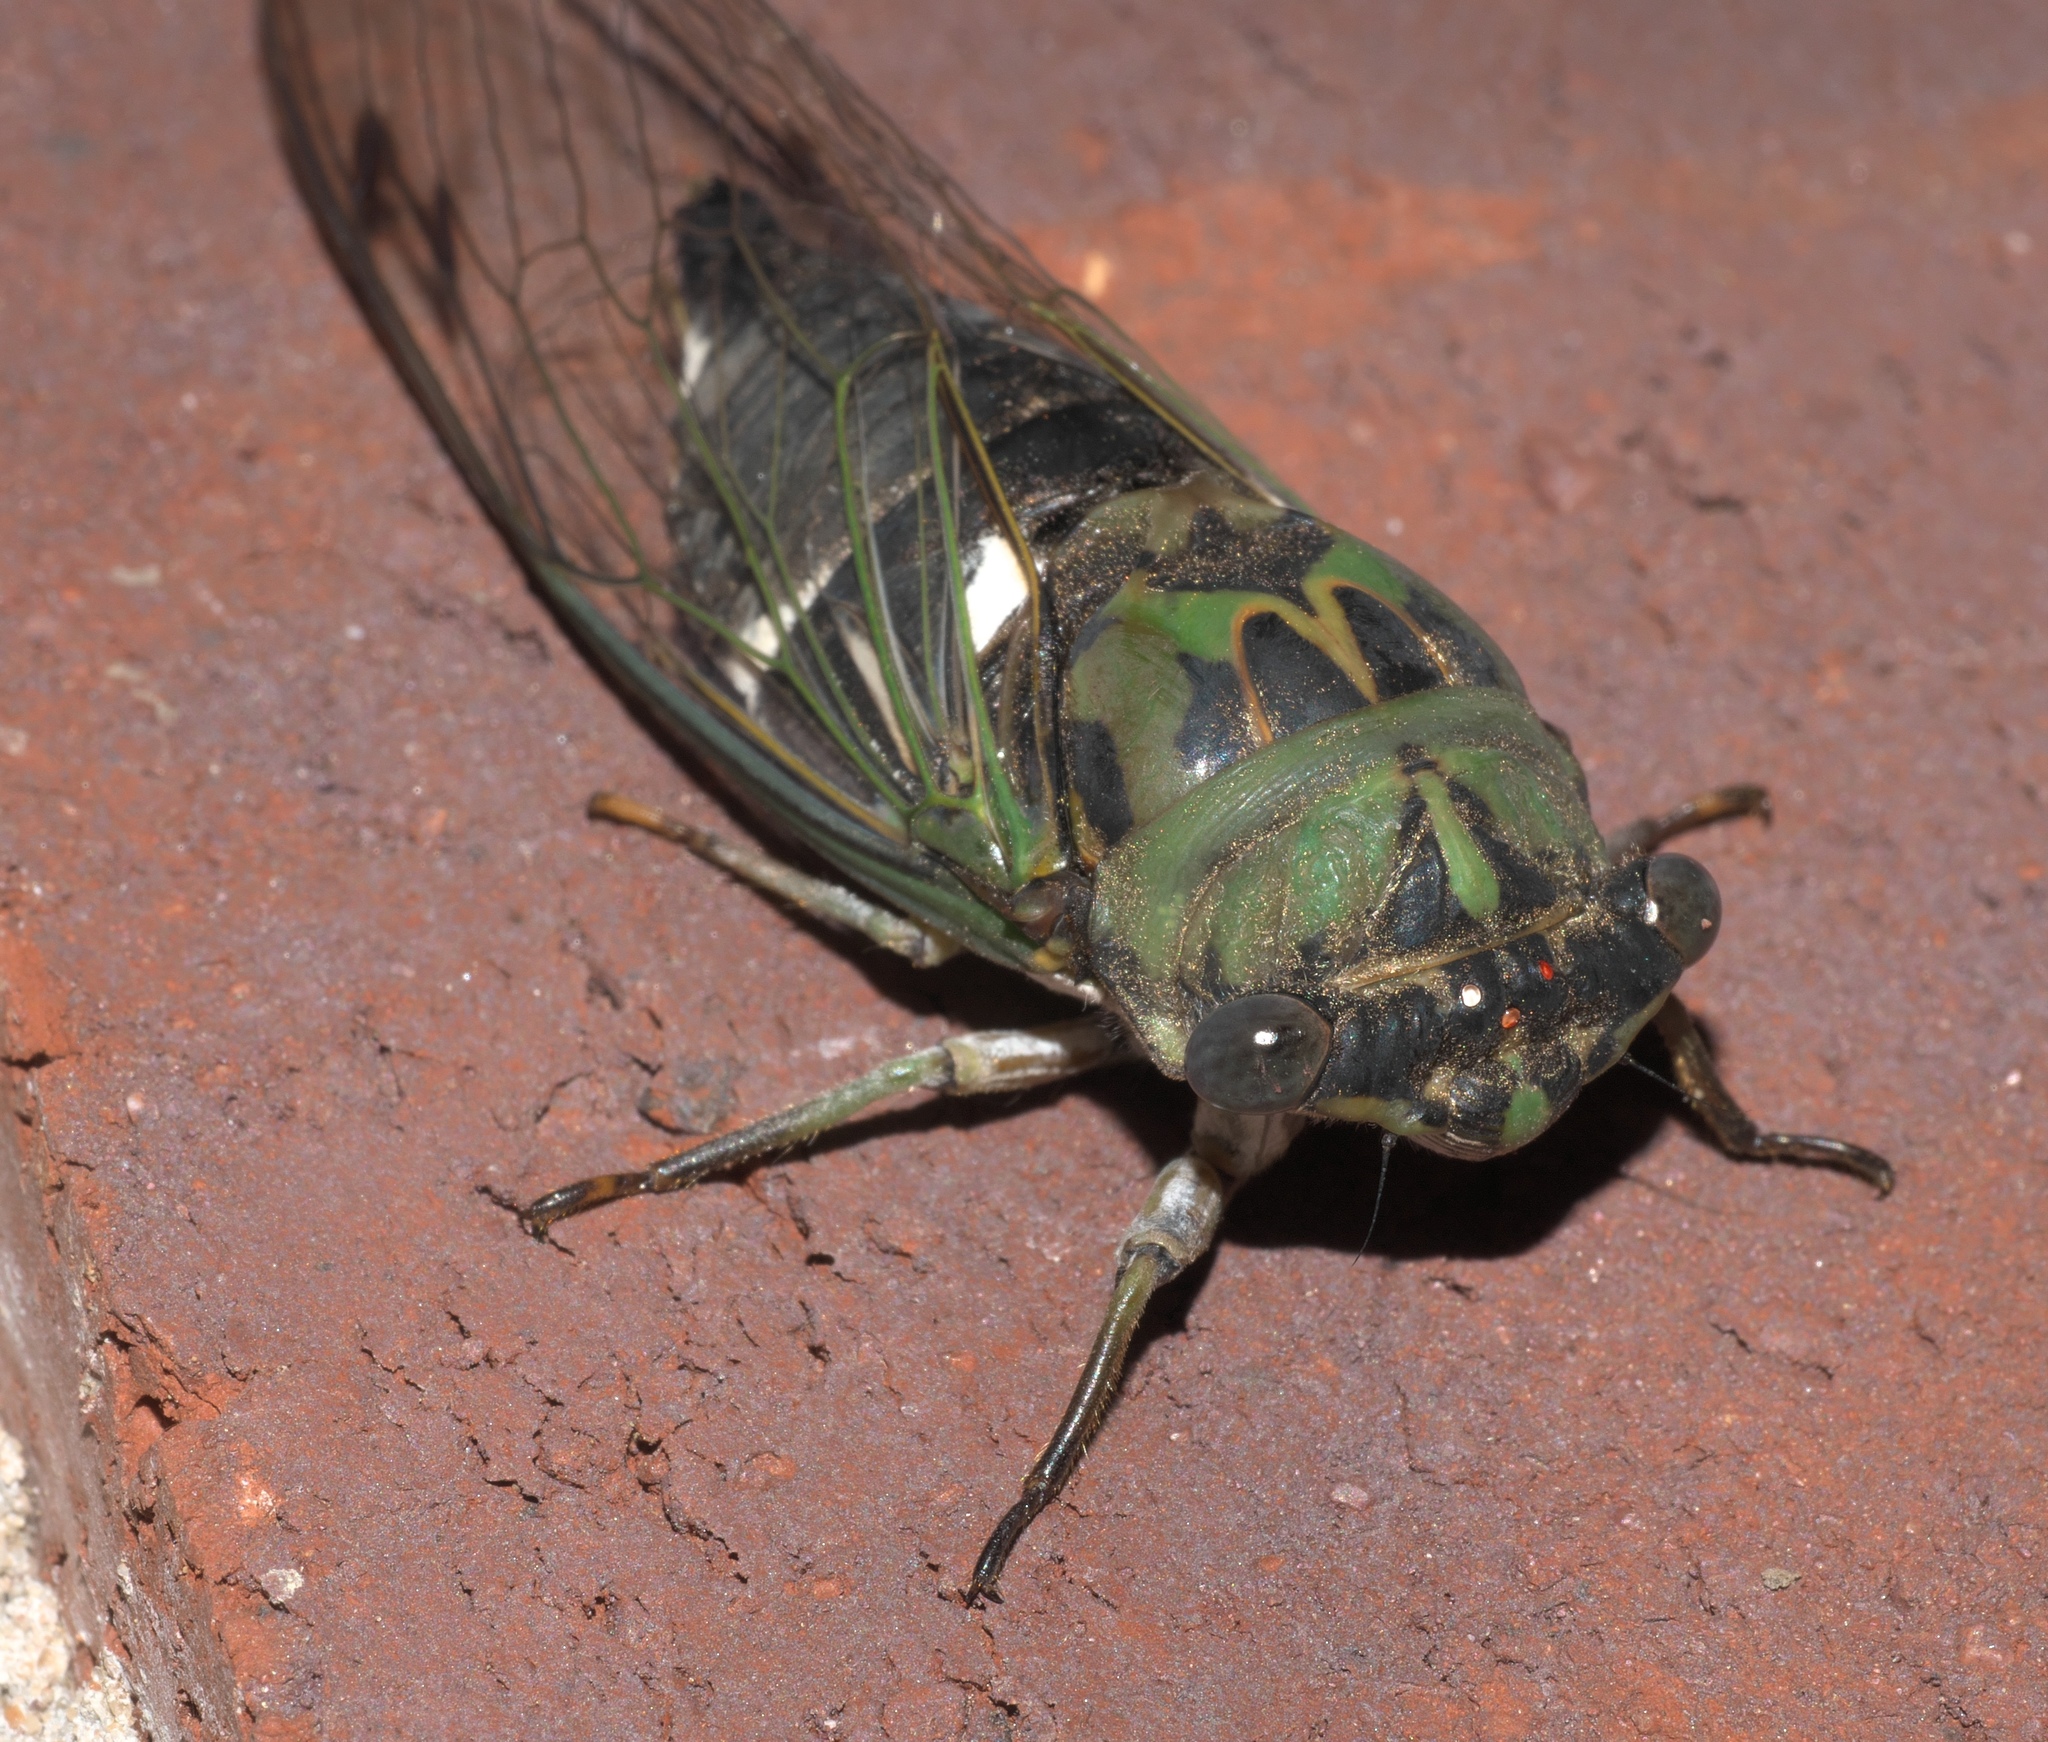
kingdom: Animalia
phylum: Arthropoda
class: Insecta
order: Hemiptera
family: Cicadidae
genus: Neotibicen
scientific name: Neotibicen pruinosus
